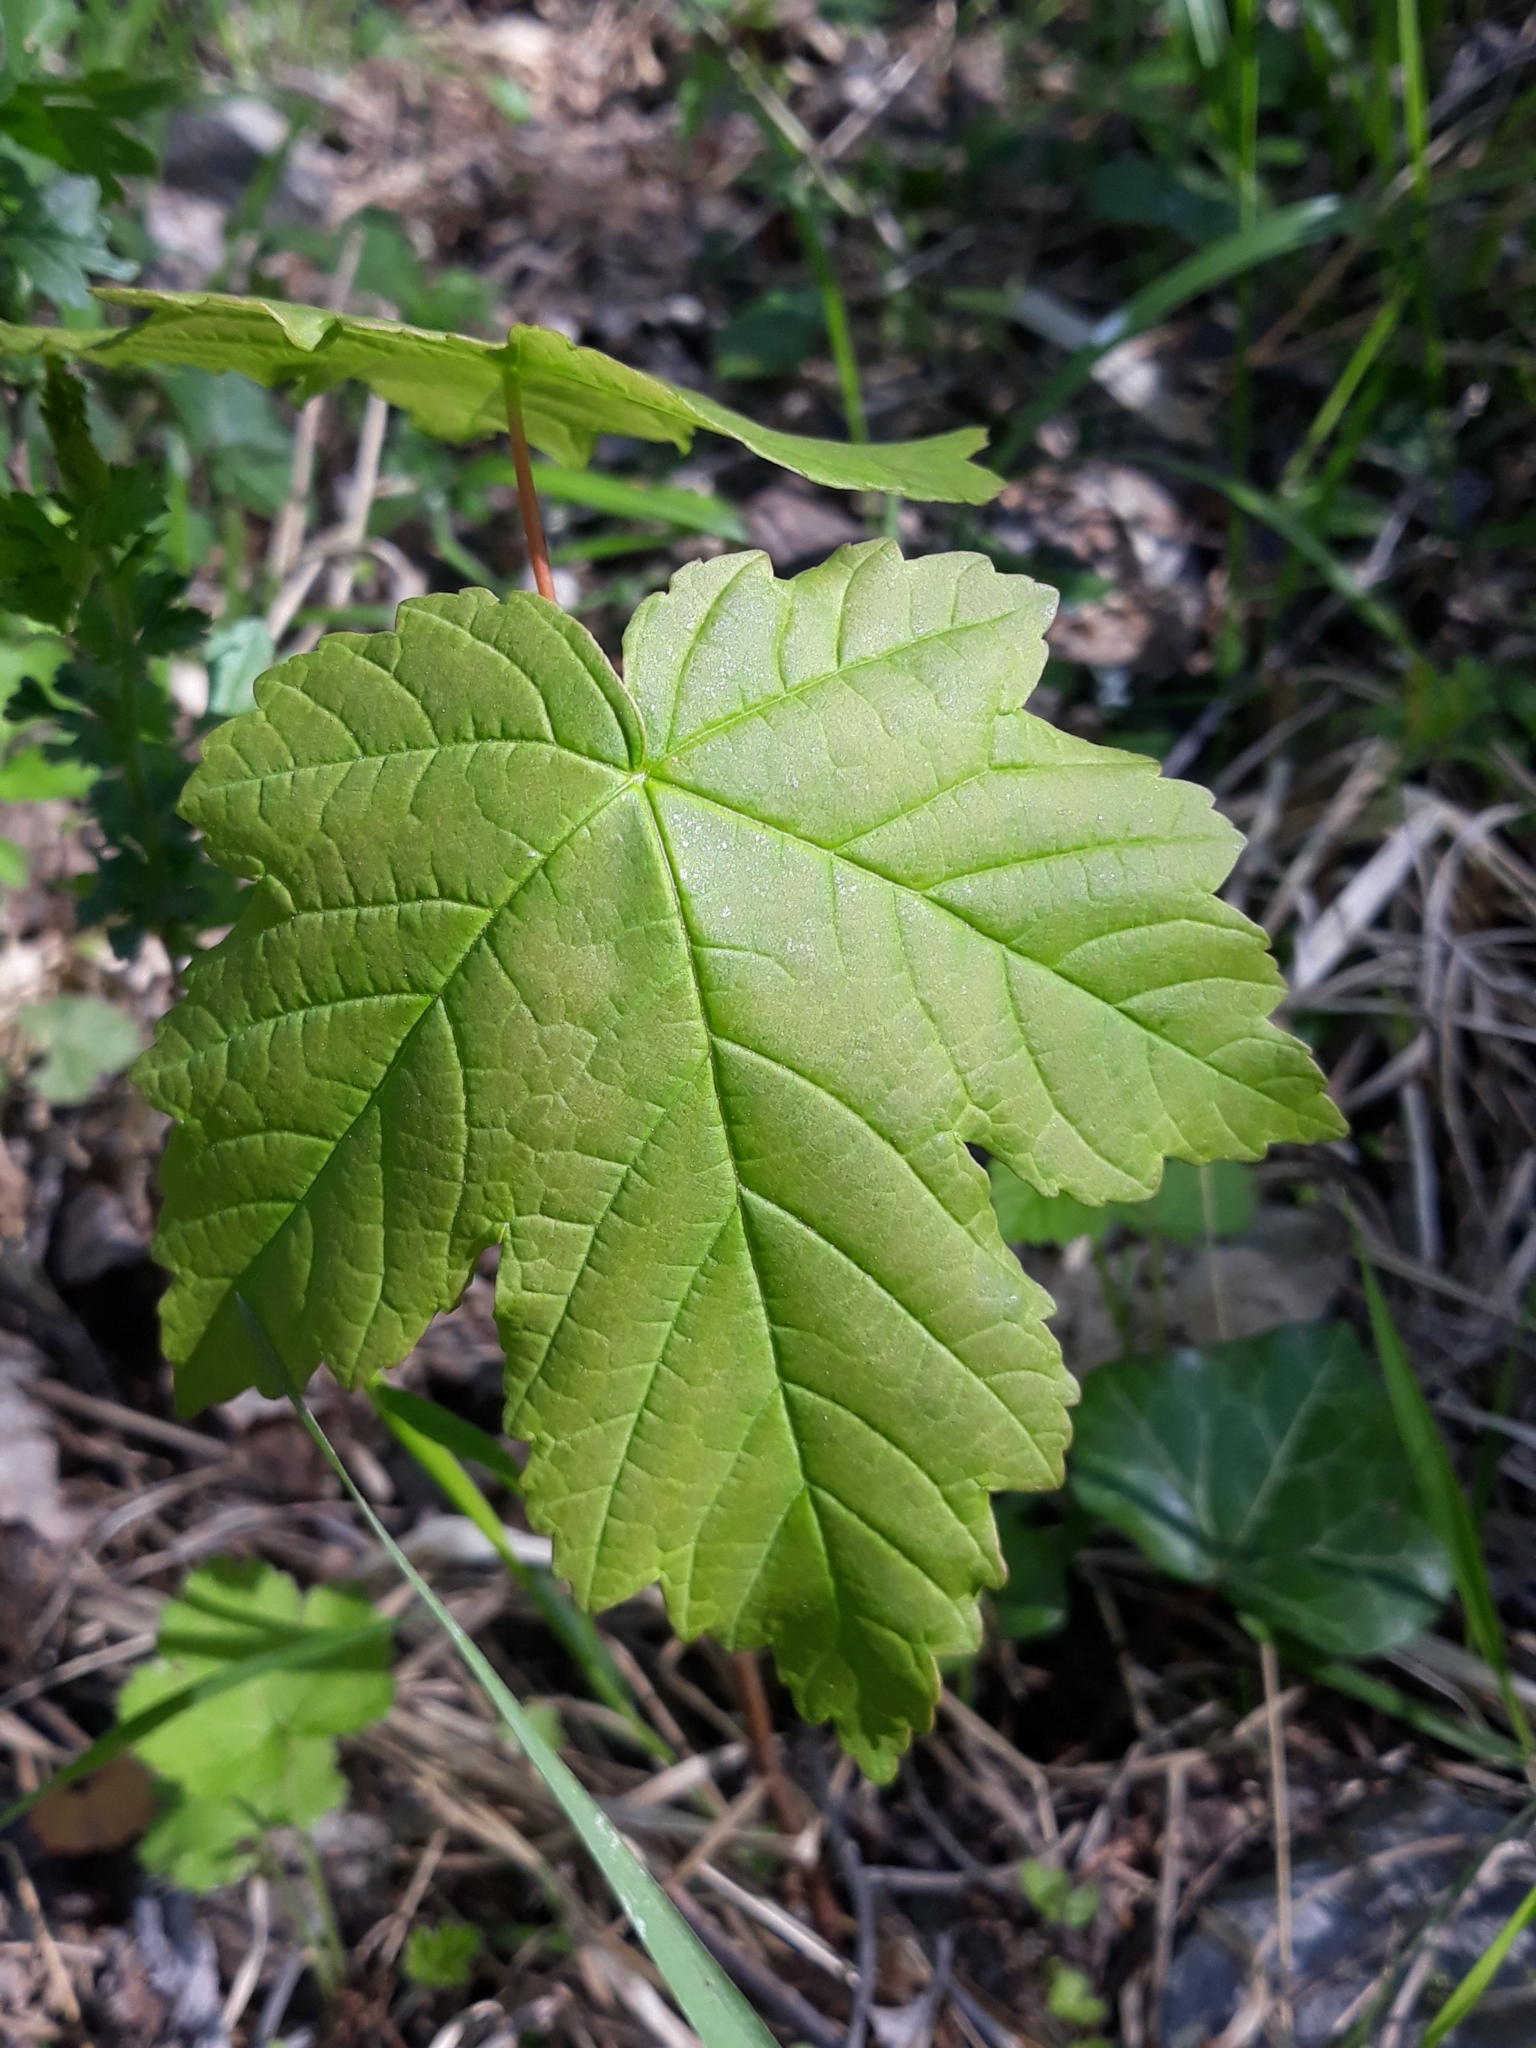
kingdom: Plantae
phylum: Tracheophyta
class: Magnoliopsida
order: Sapindales
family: Sapindaceae
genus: Acer
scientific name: Acer pseudoplatanus
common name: Sycamore
